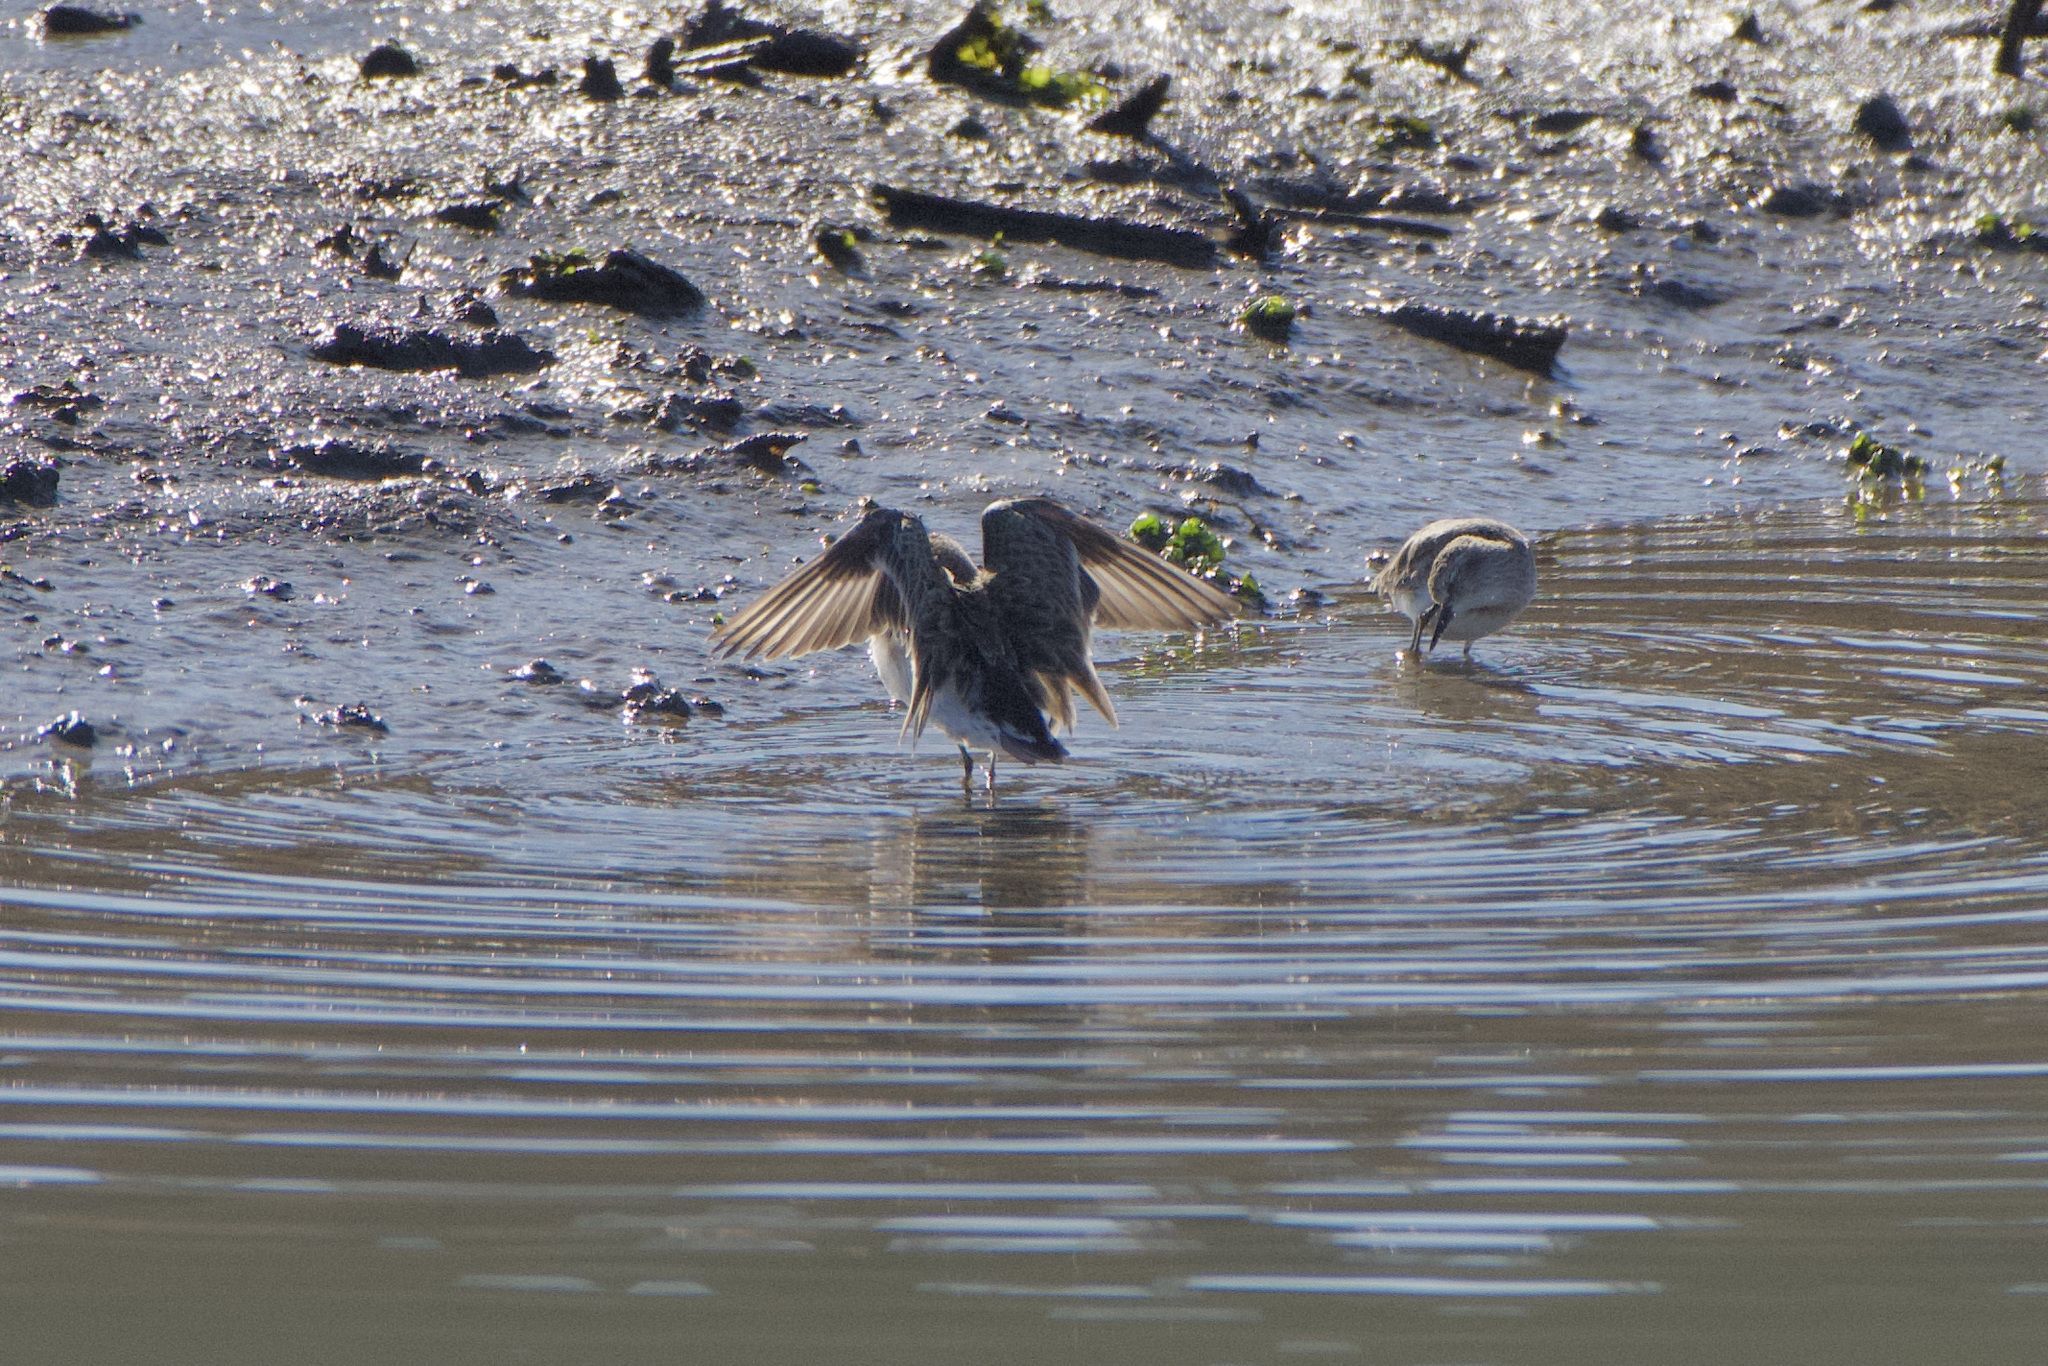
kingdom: Animalia
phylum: Chordata
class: Aves
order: Charadriiformes
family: Scolopacidae
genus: Calidris
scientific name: Calidris minutilla
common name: Least sandpiper
